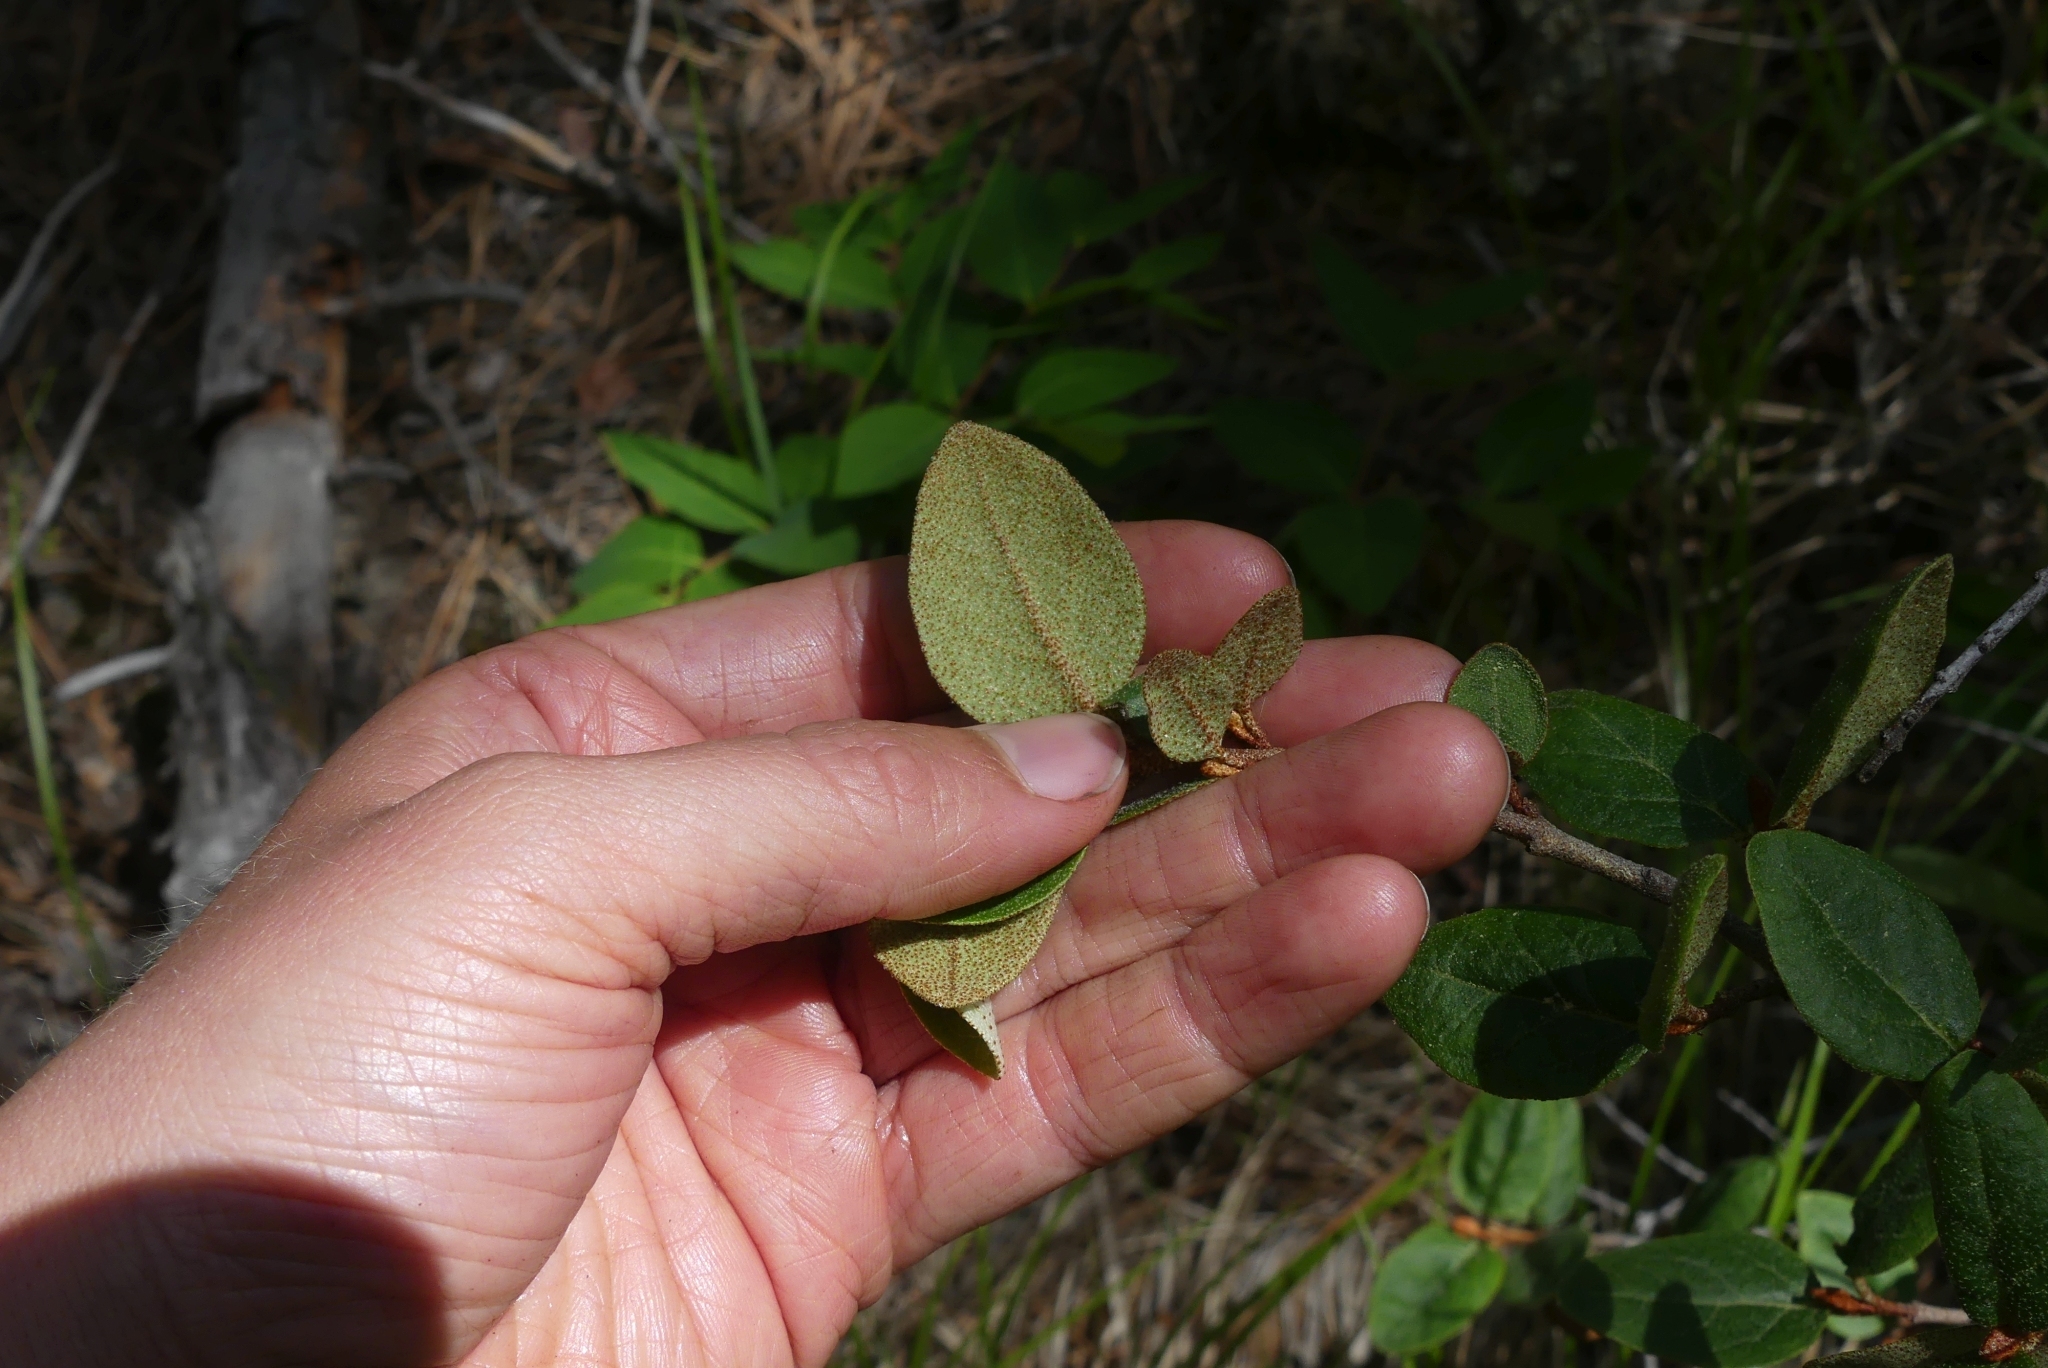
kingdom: Plantae
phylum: Tracheophyta
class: Magnoliopsida
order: Rosales
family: Elaeagnaceae
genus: Shepherdia
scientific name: Shepherdia canadensis
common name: Soapberry
